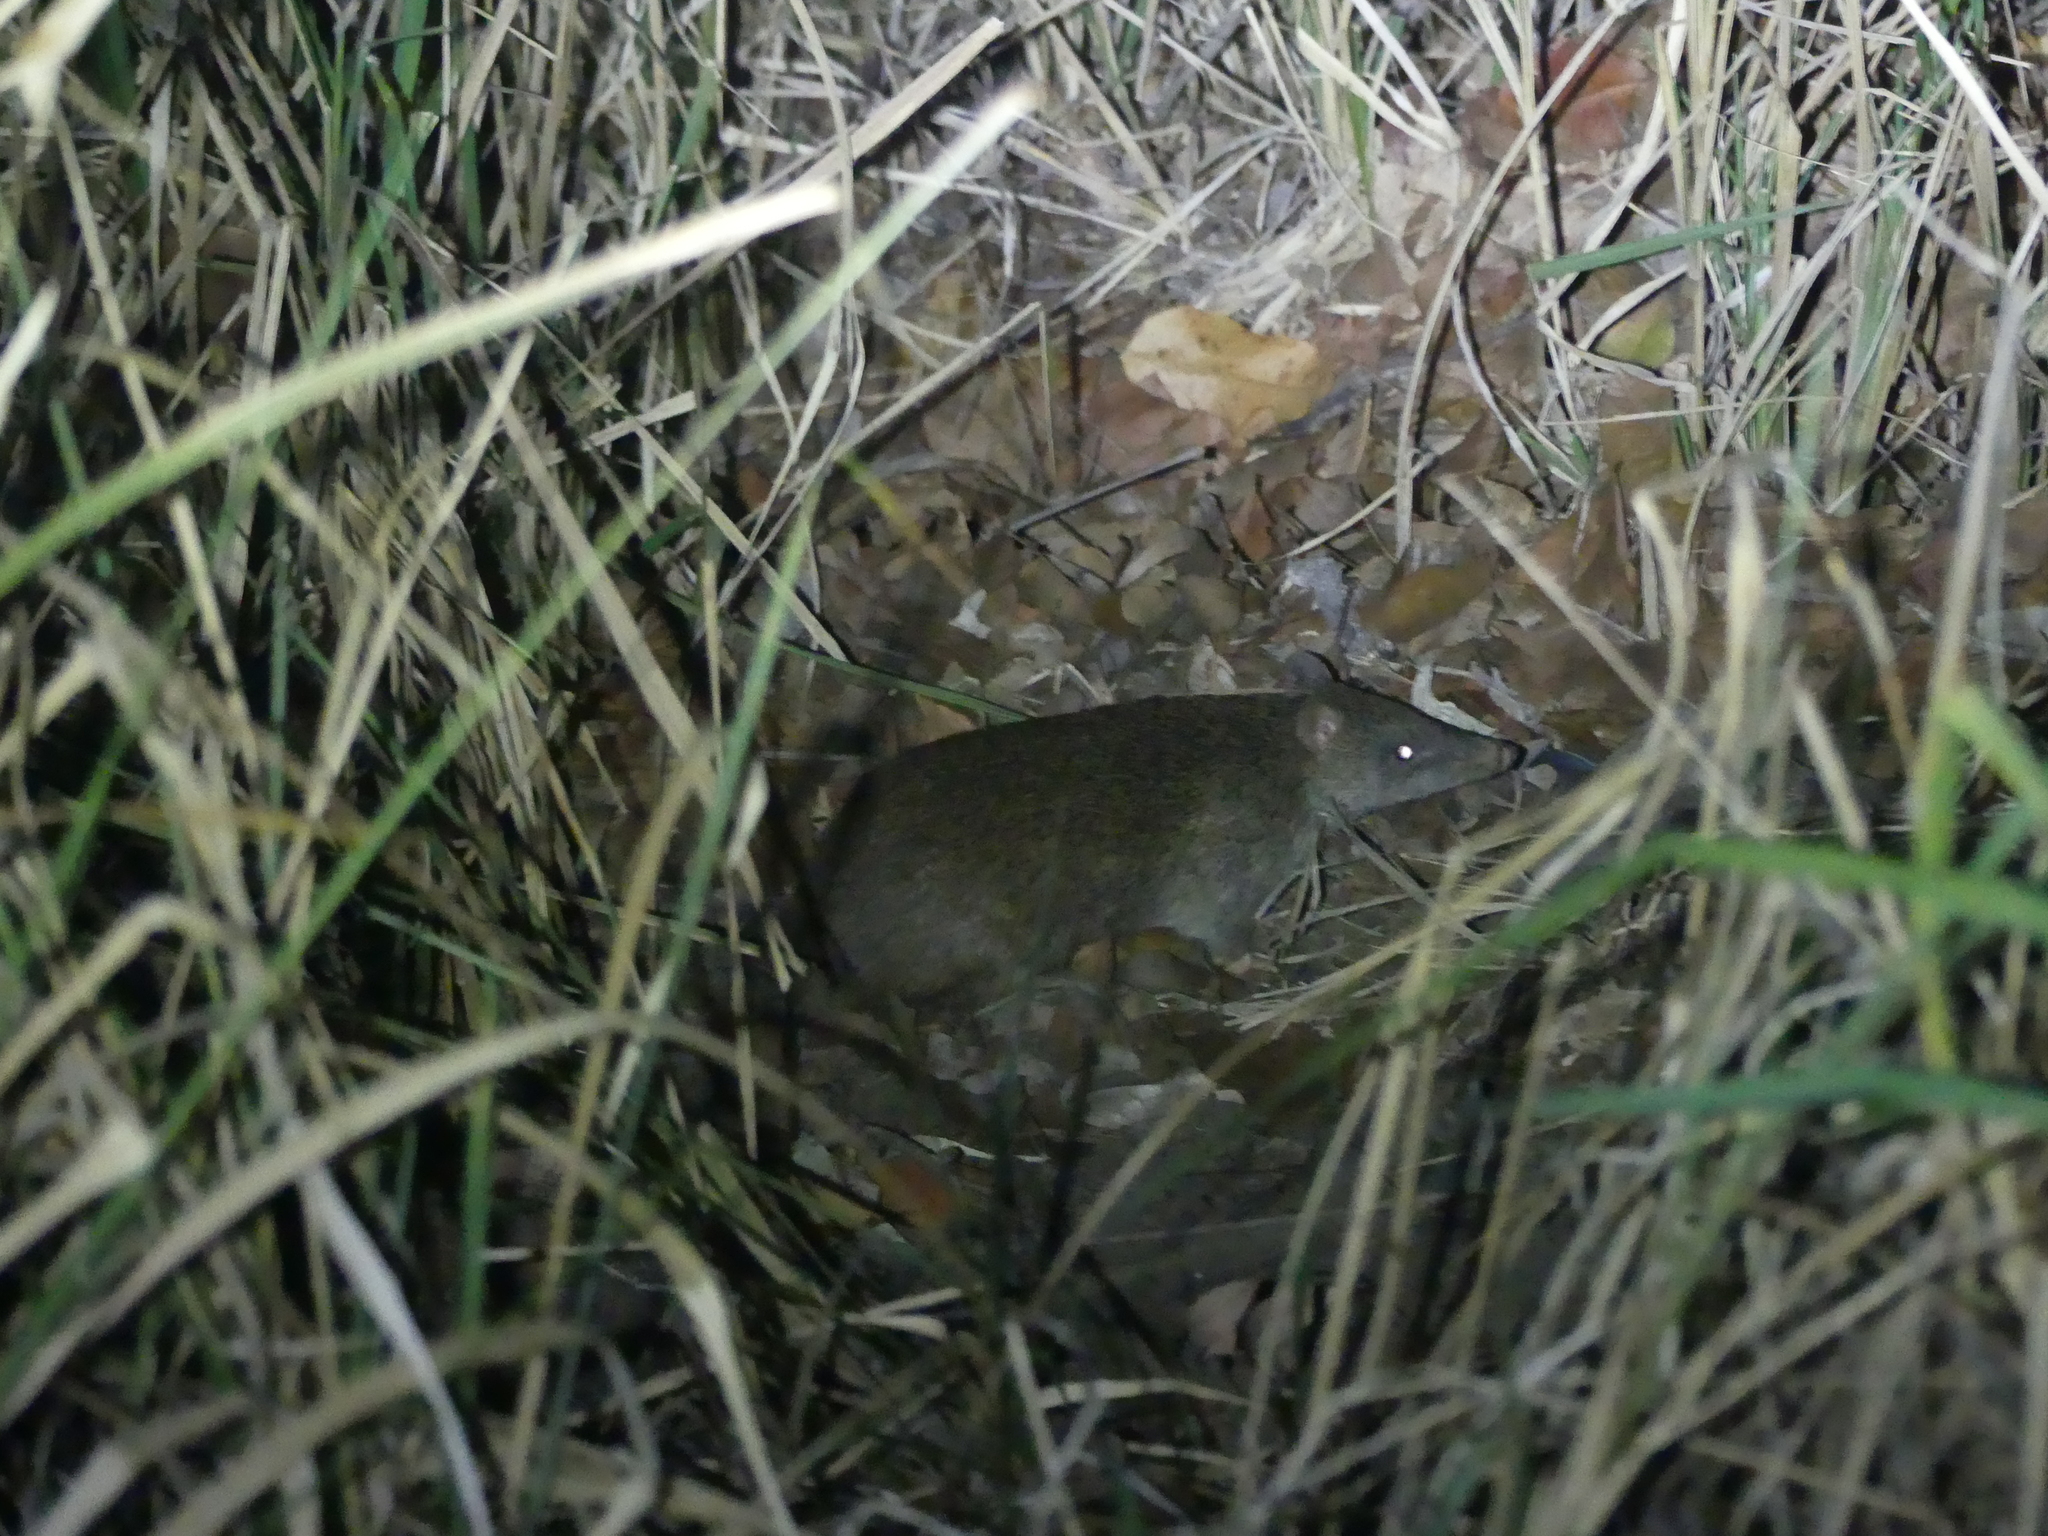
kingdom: Animalia
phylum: Chordata
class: Mammalia
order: Peramelemorphia
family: Peramelidae
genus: Isoodon
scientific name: Isoodon macrourus
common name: Northern brown bandicoot
